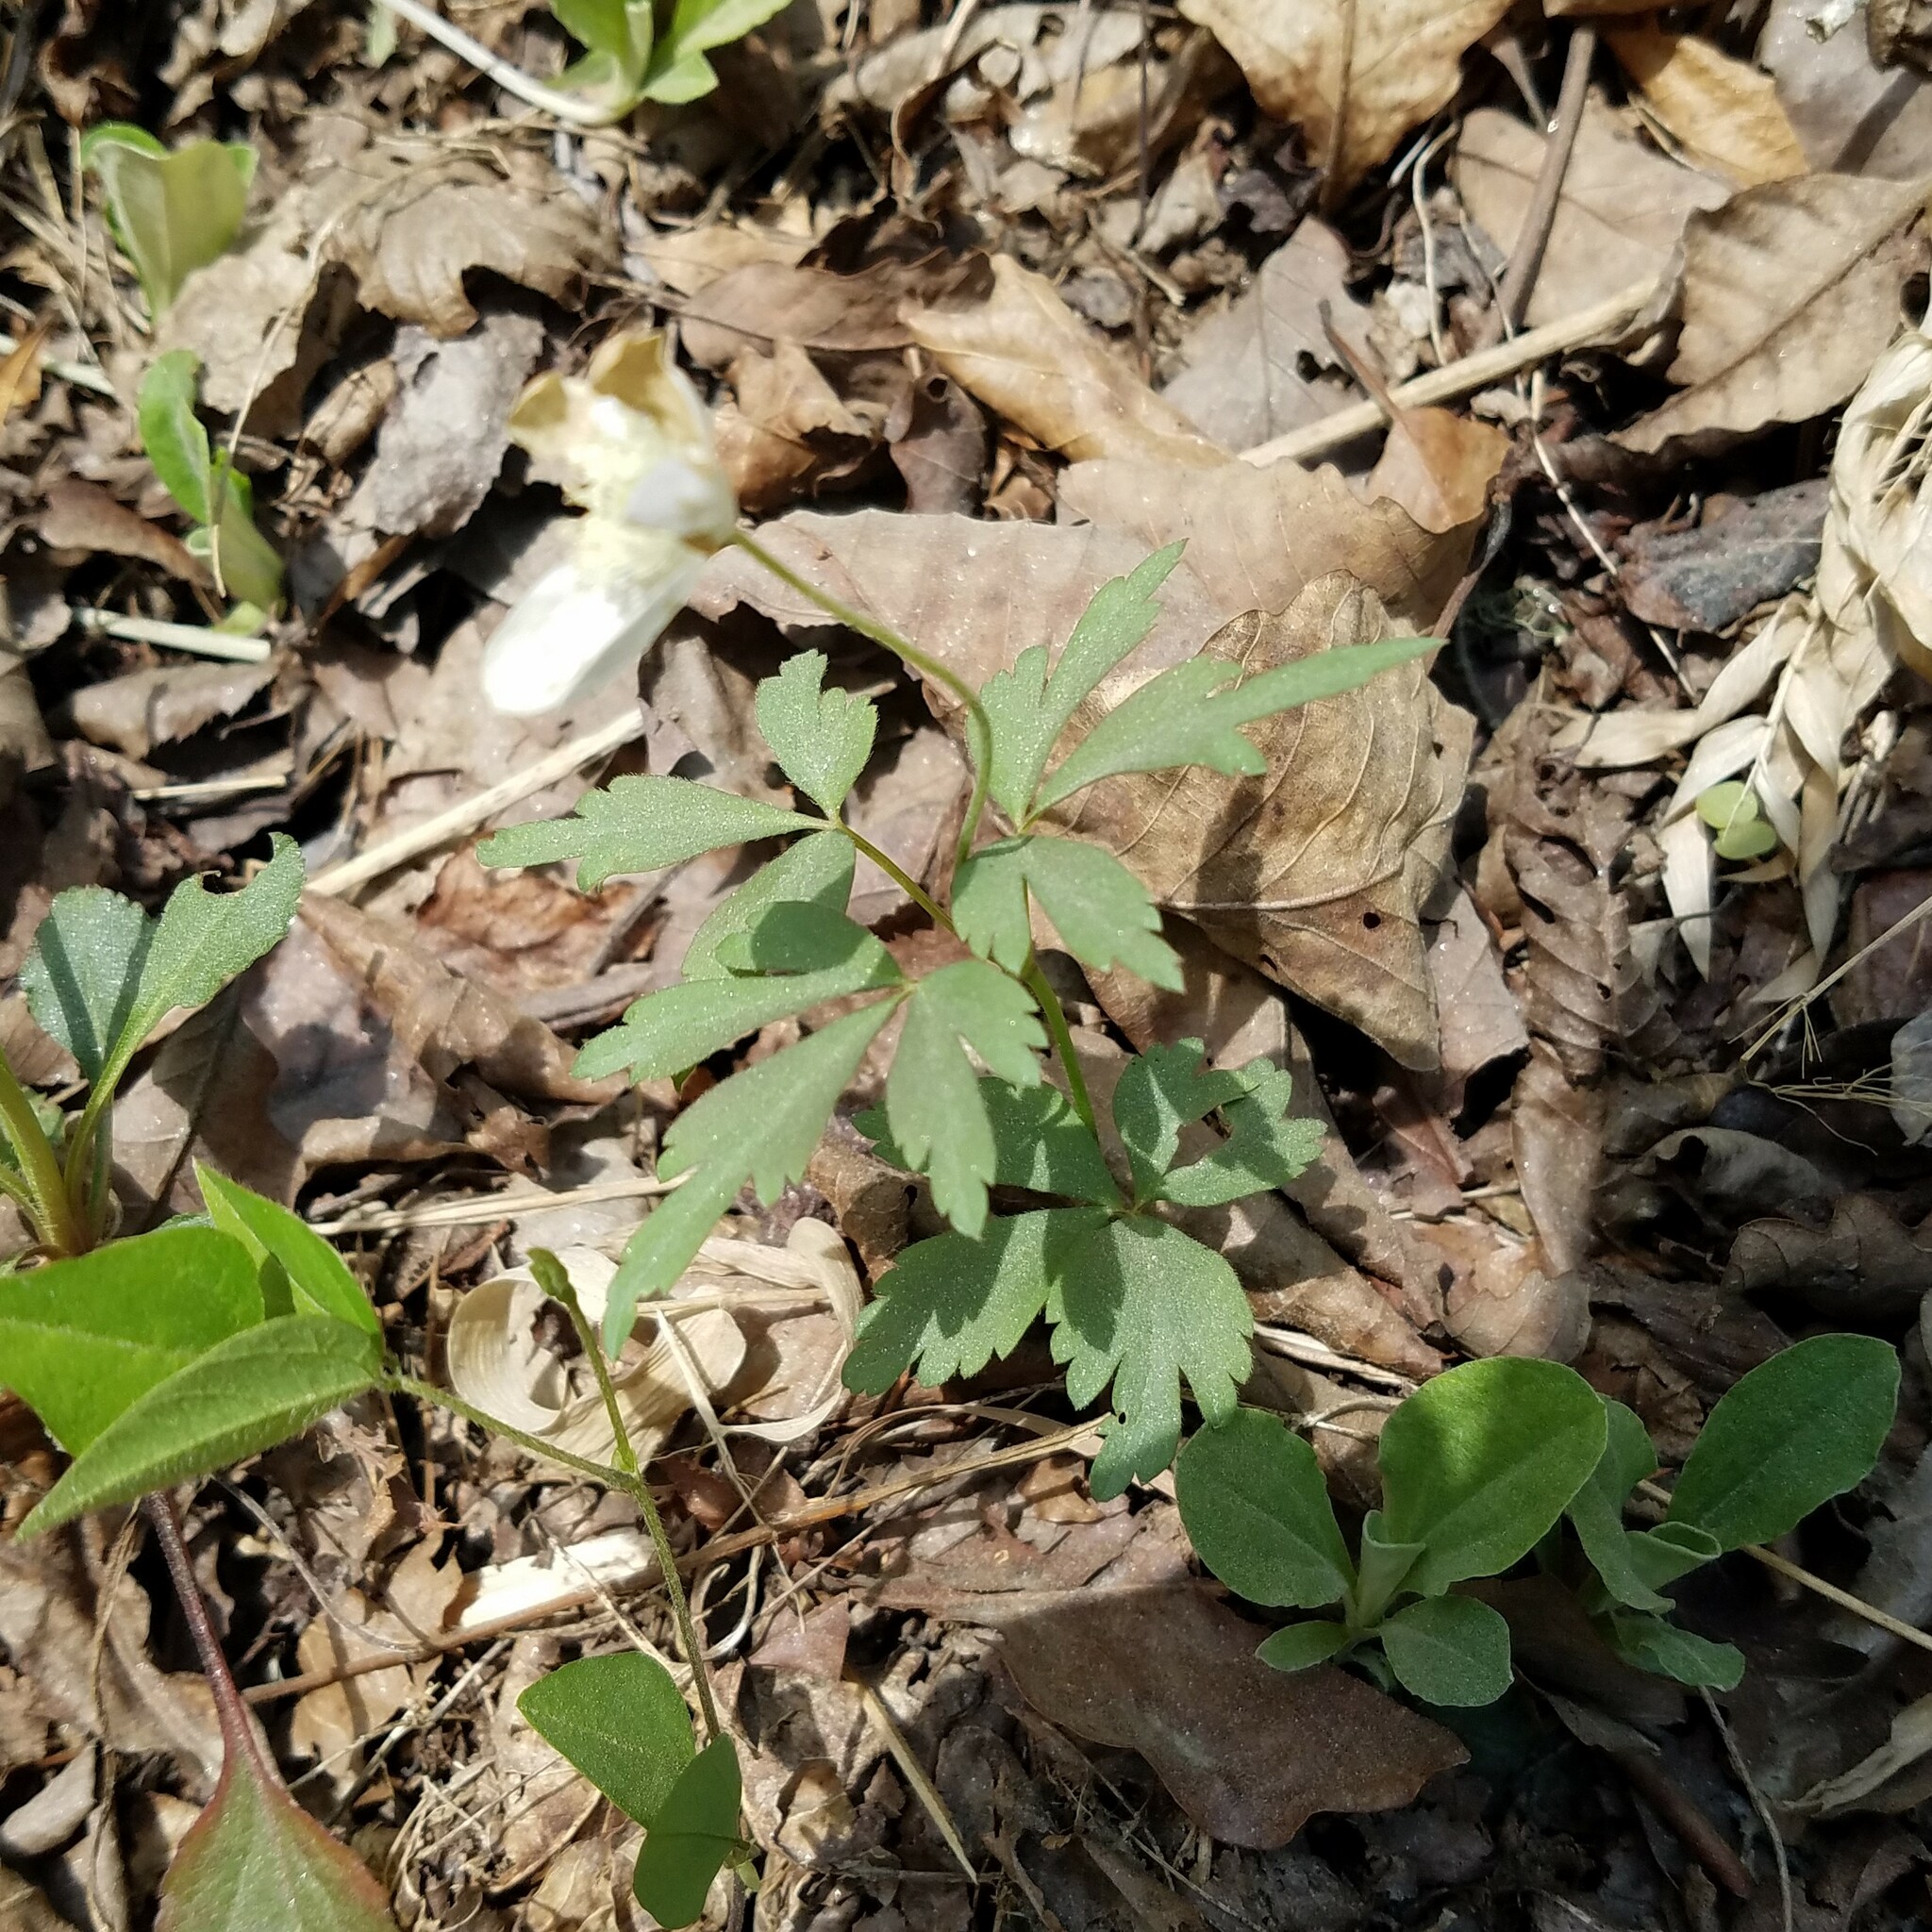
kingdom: Plantae
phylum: Tracheophyta
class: Magnoliopsida
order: Ranunculales
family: Ranunculaceae
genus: Anemone
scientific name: Anemone quinquefolia
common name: Wood anemone
